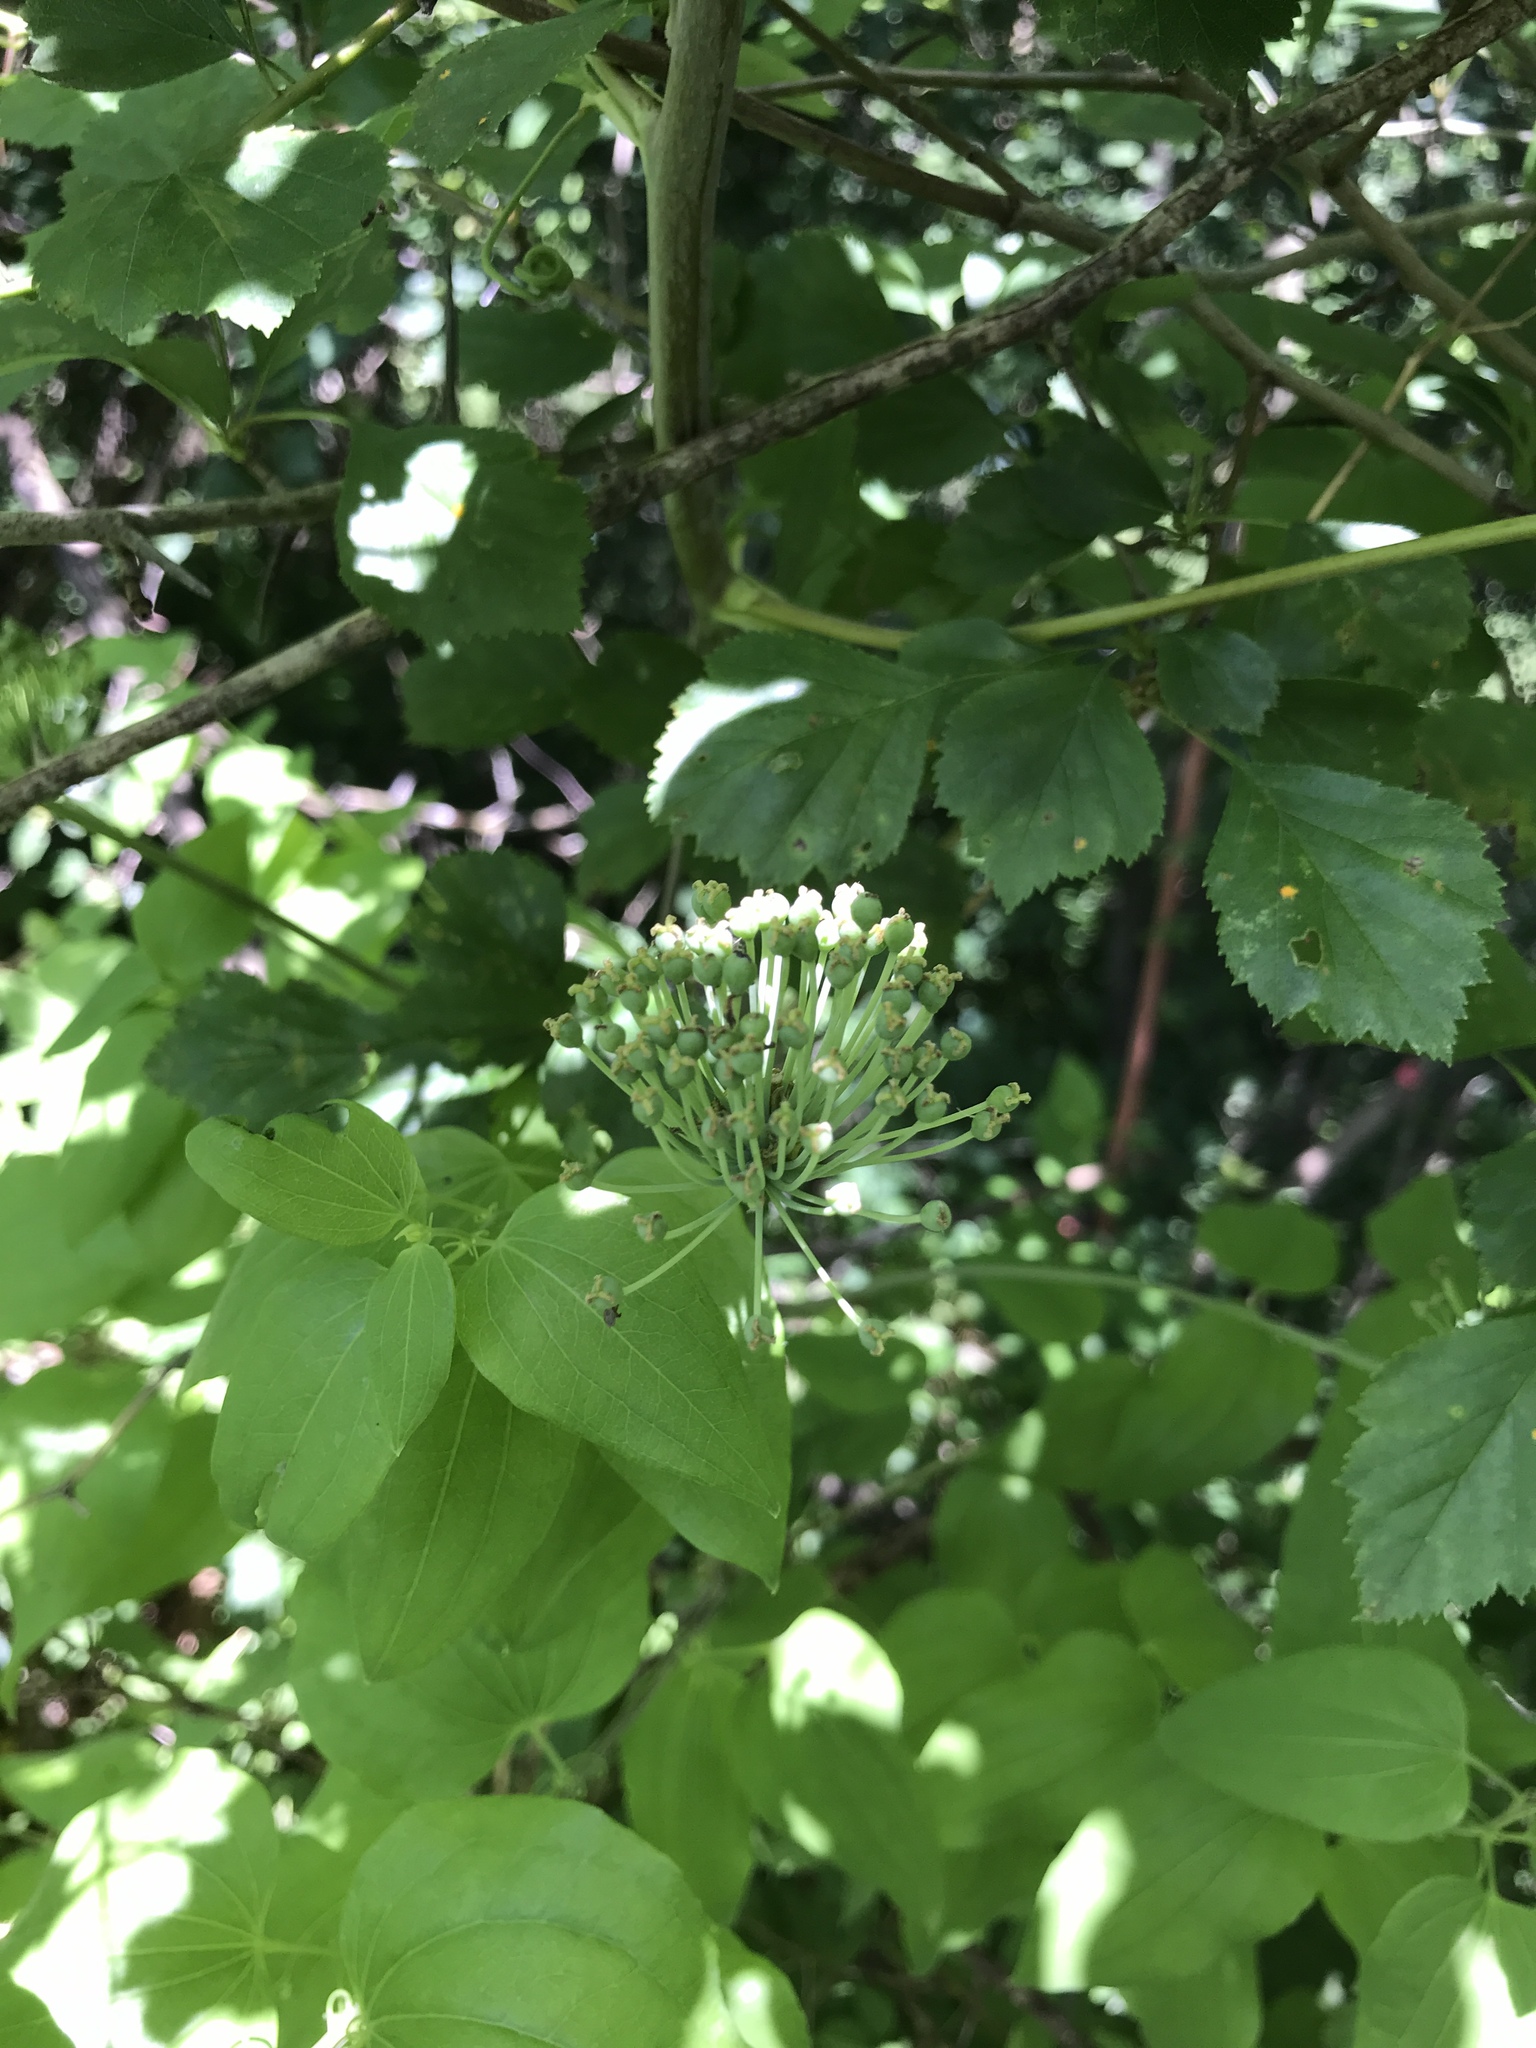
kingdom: Plantae
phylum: Tracheophyta
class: Liliopsida
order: Liliales
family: Smilacaceae
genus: Smilax
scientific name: Smilax herbacea
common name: Jacob's-ladder
